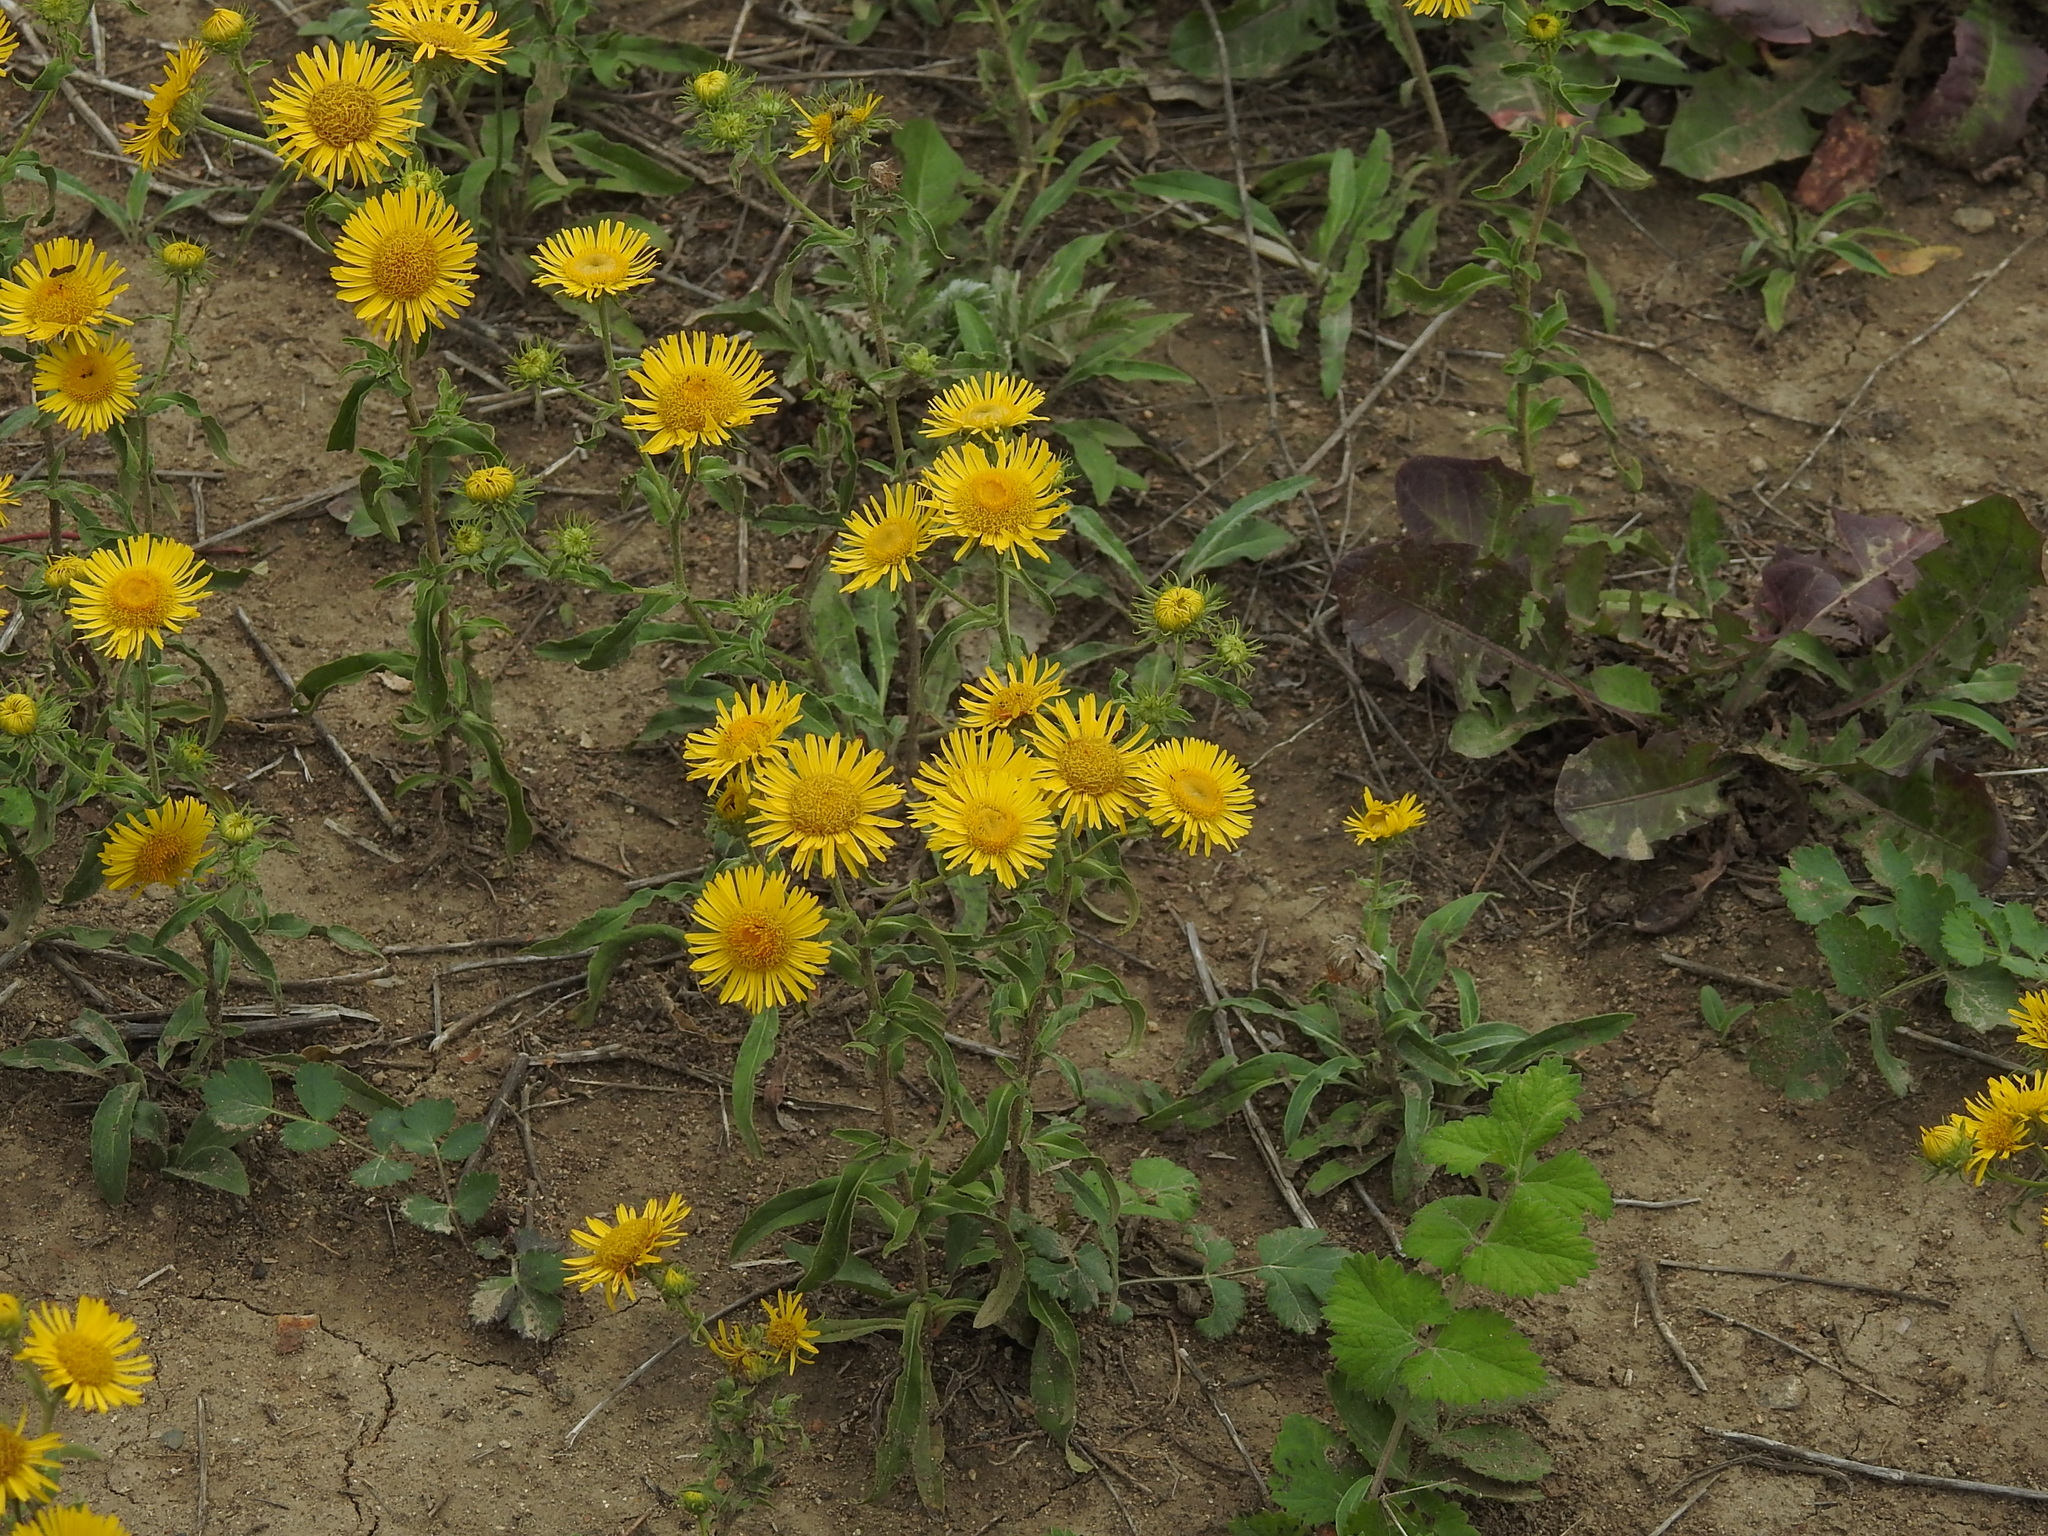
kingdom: Plantae
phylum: Tracheophyta
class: Magnoliopsida
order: Asterales
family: Asteraceae
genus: Pentanema
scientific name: Pentanema britannicum
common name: British elecampane
